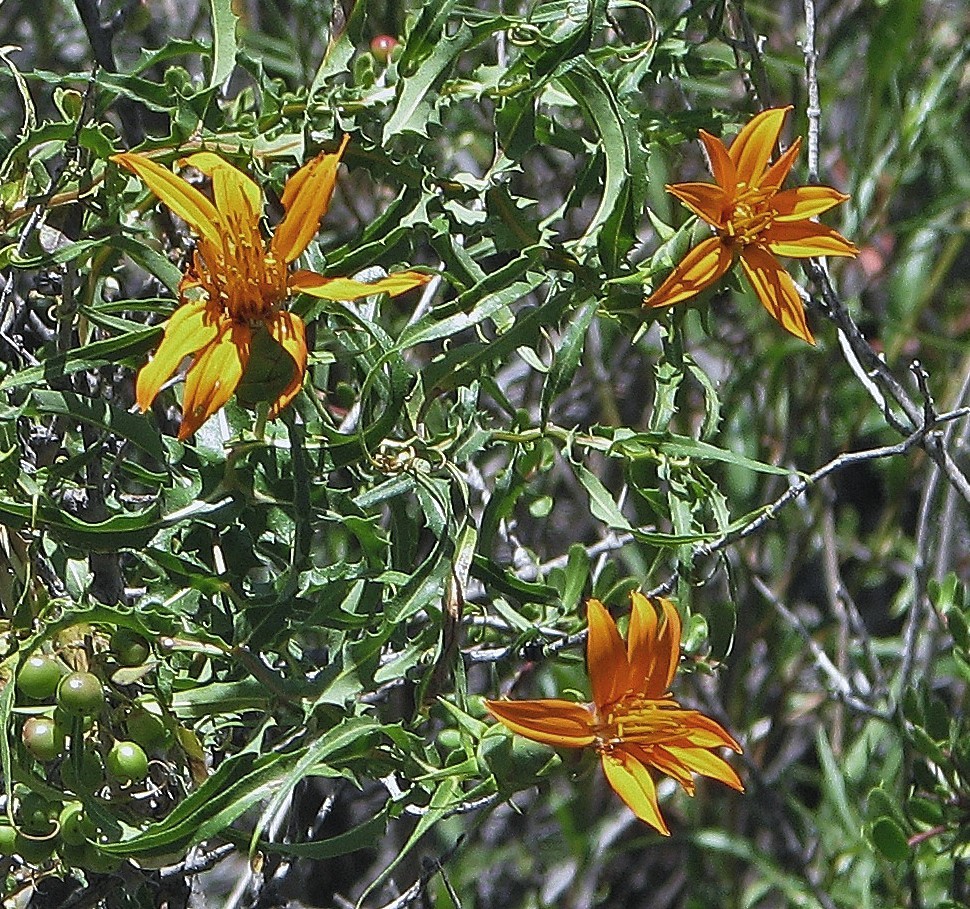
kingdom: Plantae
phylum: Tracheophyta
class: Magnoliopsida
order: Asterales
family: Asteraceae
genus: Mutisia
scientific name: Mutisia subspinosa
